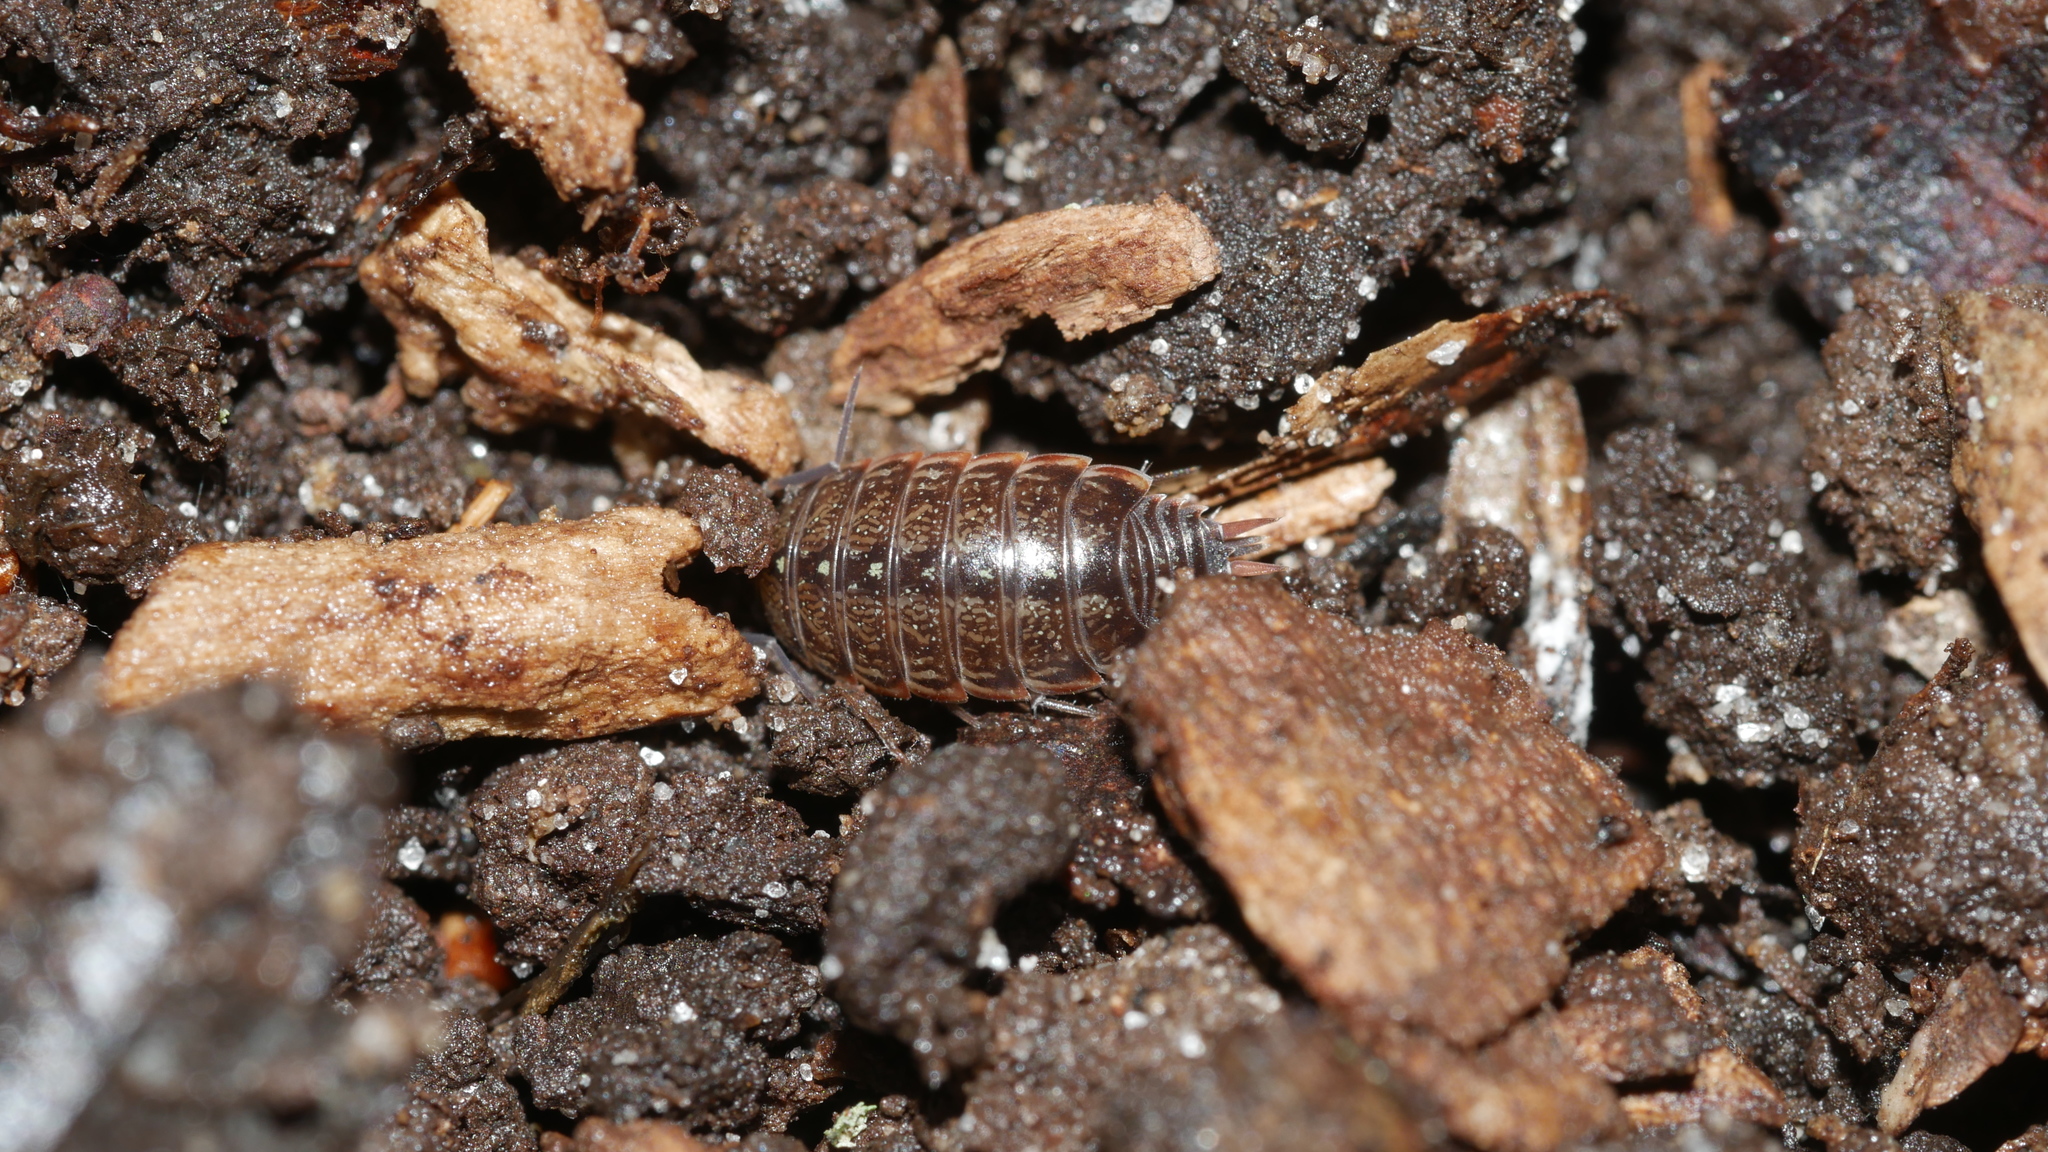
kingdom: Animalia
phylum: Arthropoda
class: Malacostraca
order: Isopoda
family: Philosciidae
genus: Philoscia
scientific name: Philoscia muscorum
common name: Common striped woodlouse
